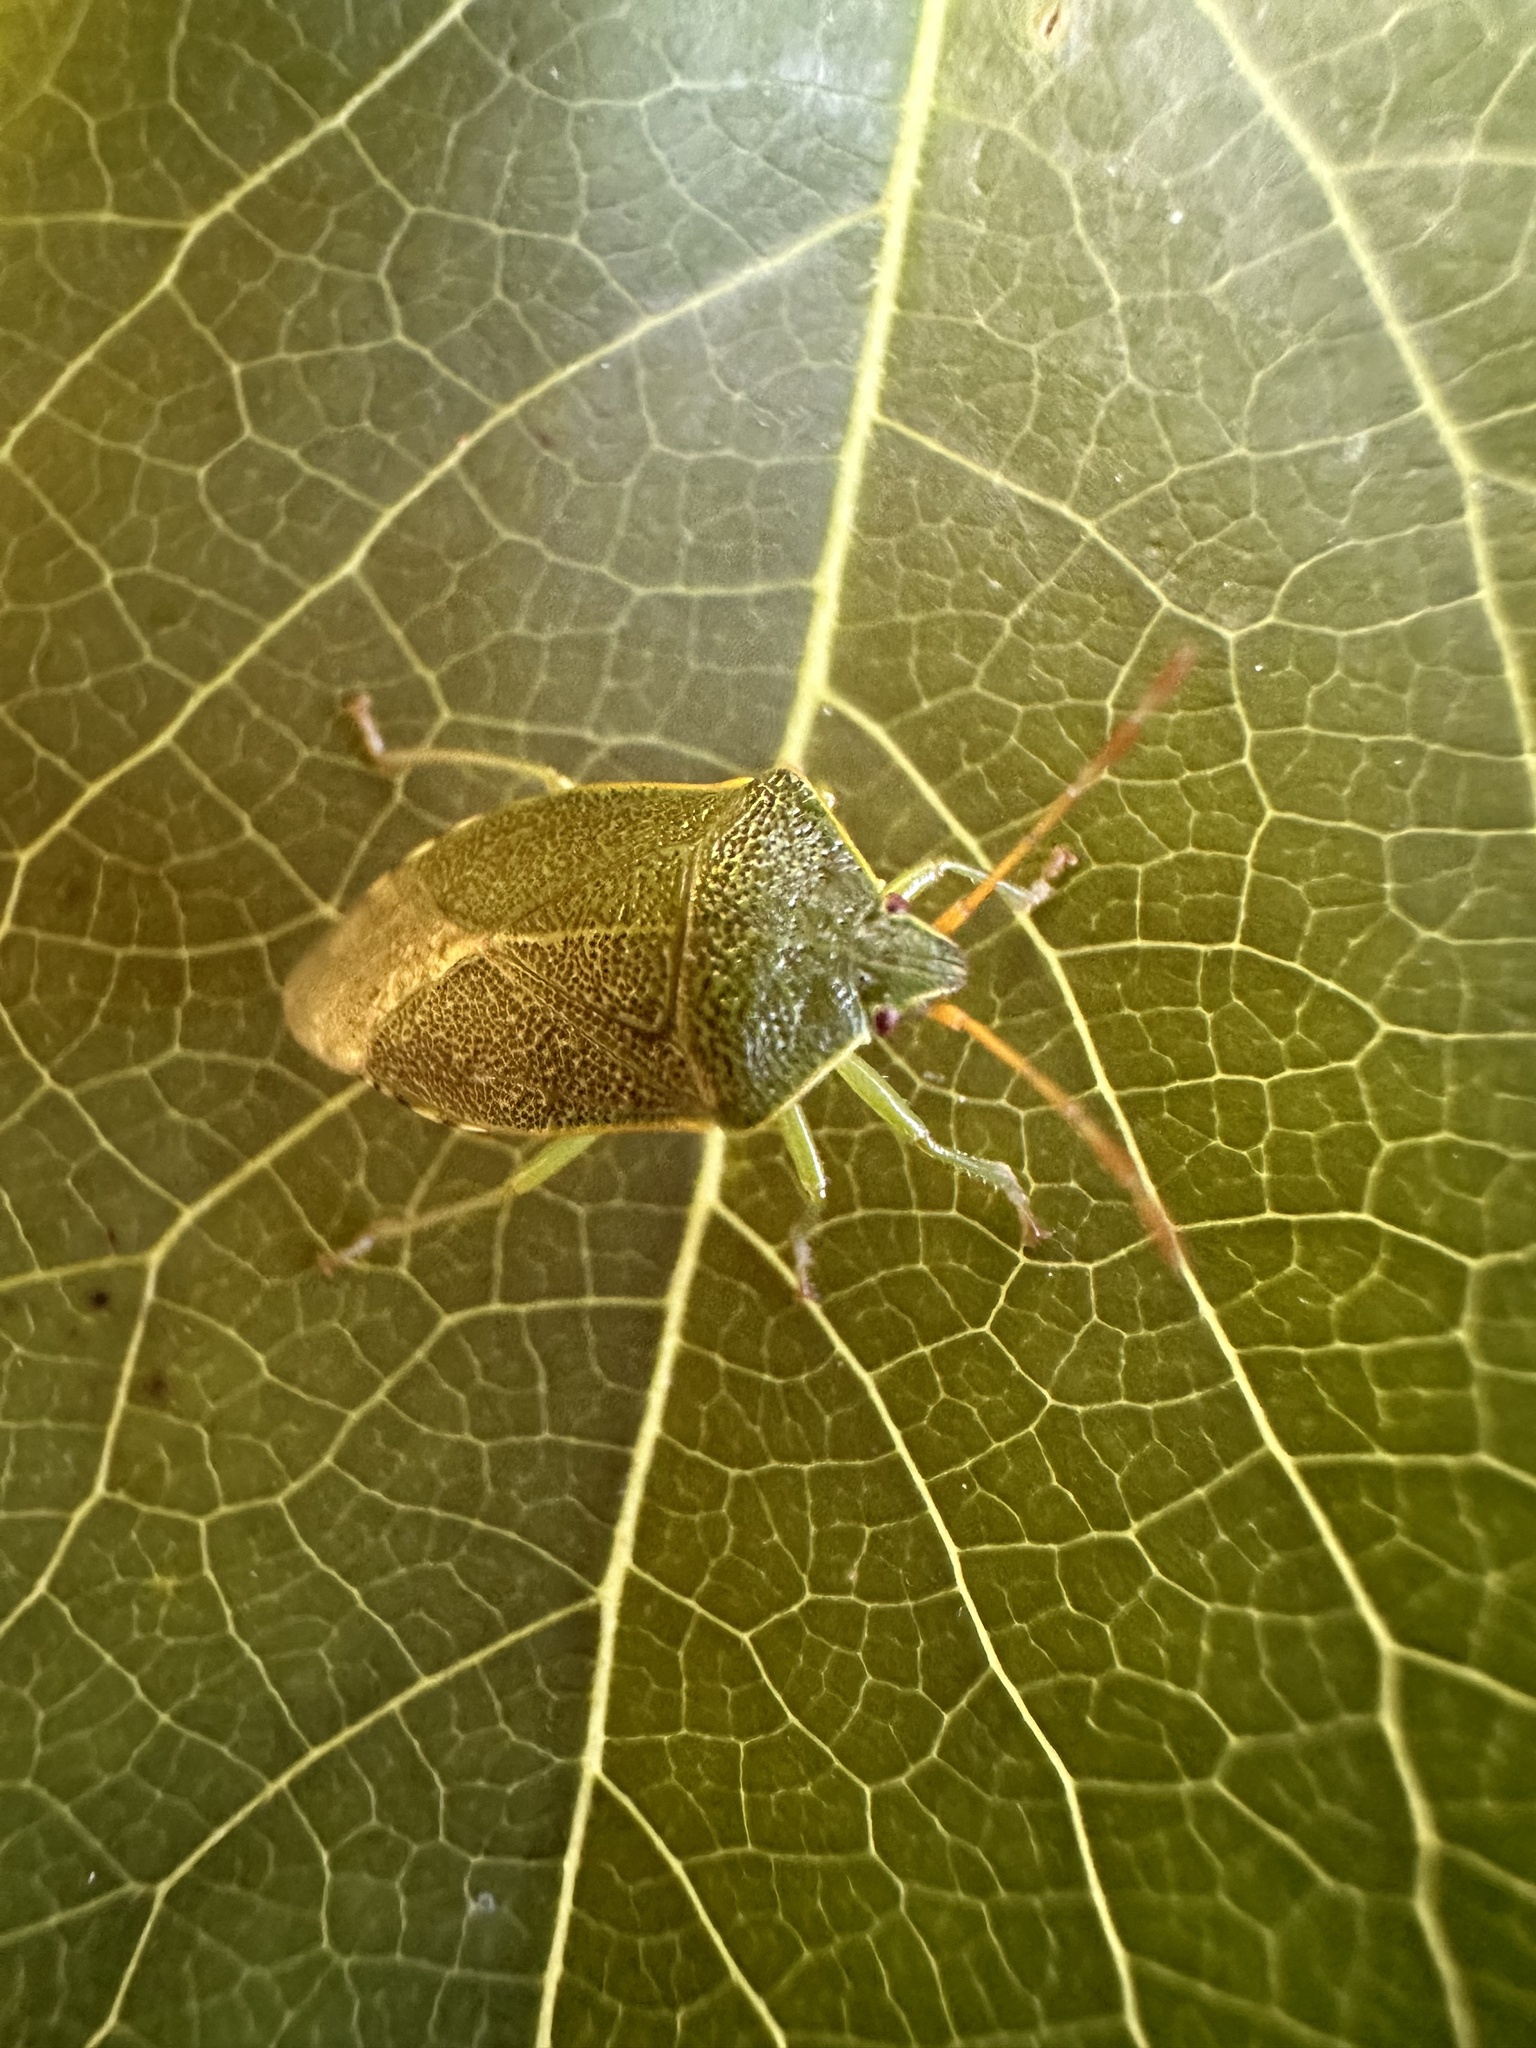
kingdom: Animalia
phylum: Arthropoda
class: Insecta
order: Hemiptera
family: Acanthosomatidae
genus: Sinopla
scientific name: Sinopla perpunctatus
